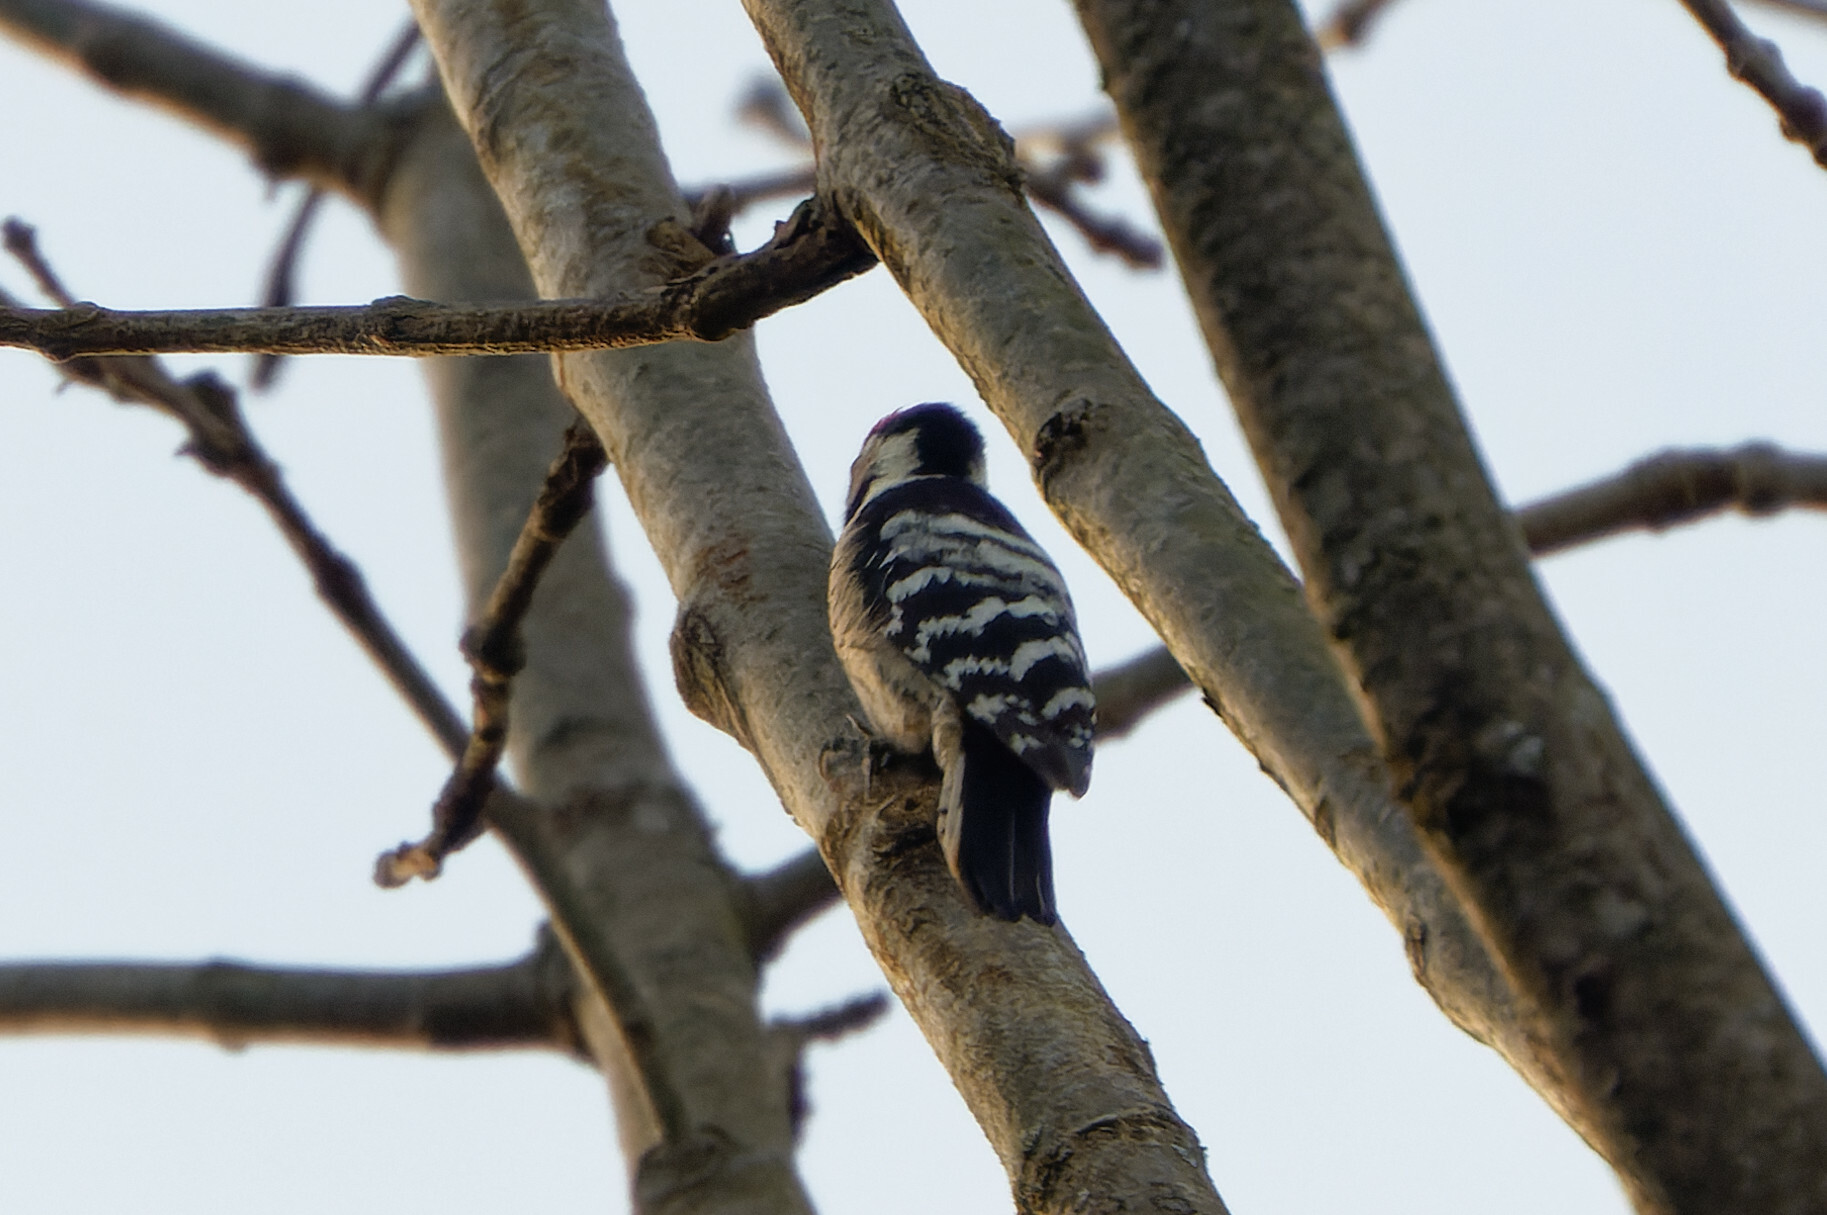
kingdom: Animalia
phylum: Chordata
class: Aves
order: Piciformes
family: Picidae
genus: Dryobates
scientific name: Dryobates minor
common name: Lesser spotted woodpecker
